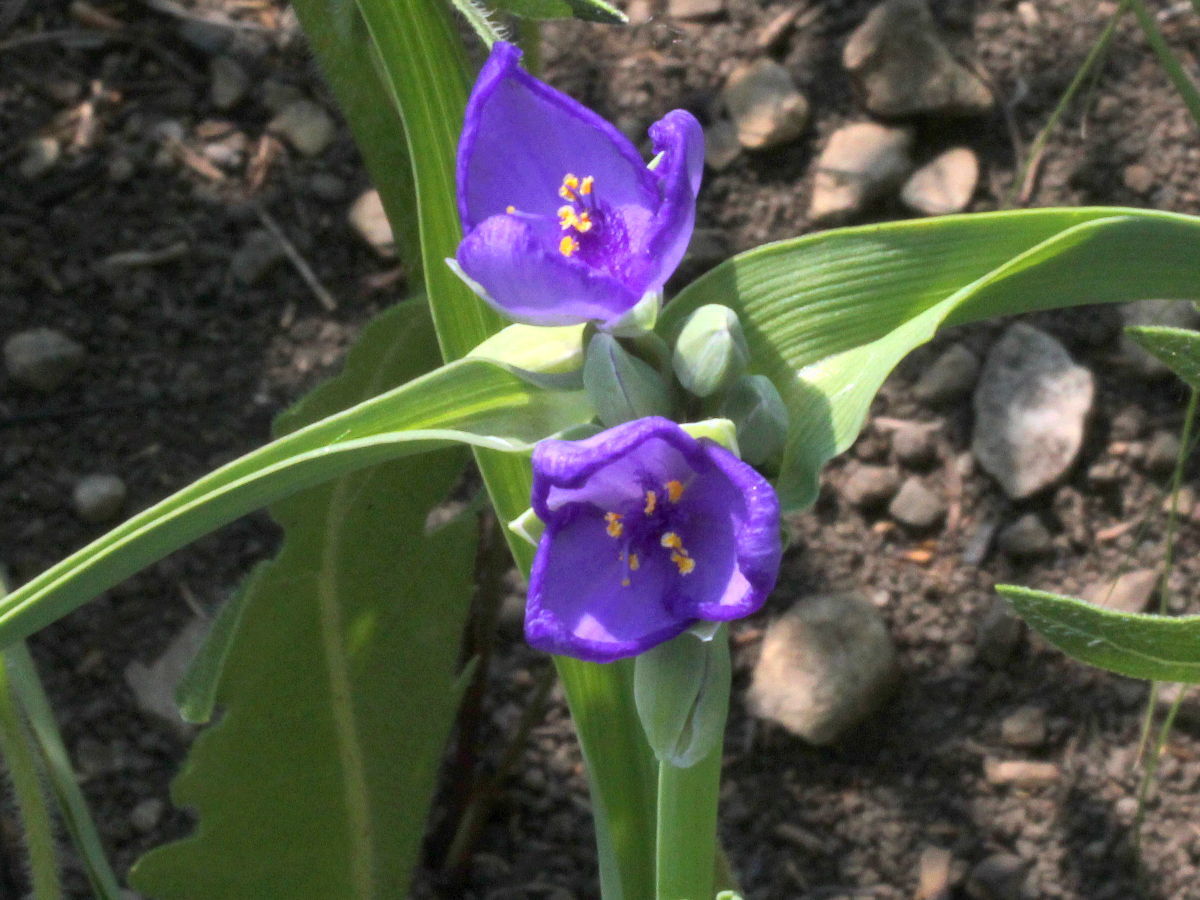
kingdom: Plantae
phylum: Tracheophyta
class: Liliopsida
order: Commelinales
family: Commelinaceae
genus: Tradescantia
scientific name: Tradescantia ohiensis
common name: Ohio spiderwort
